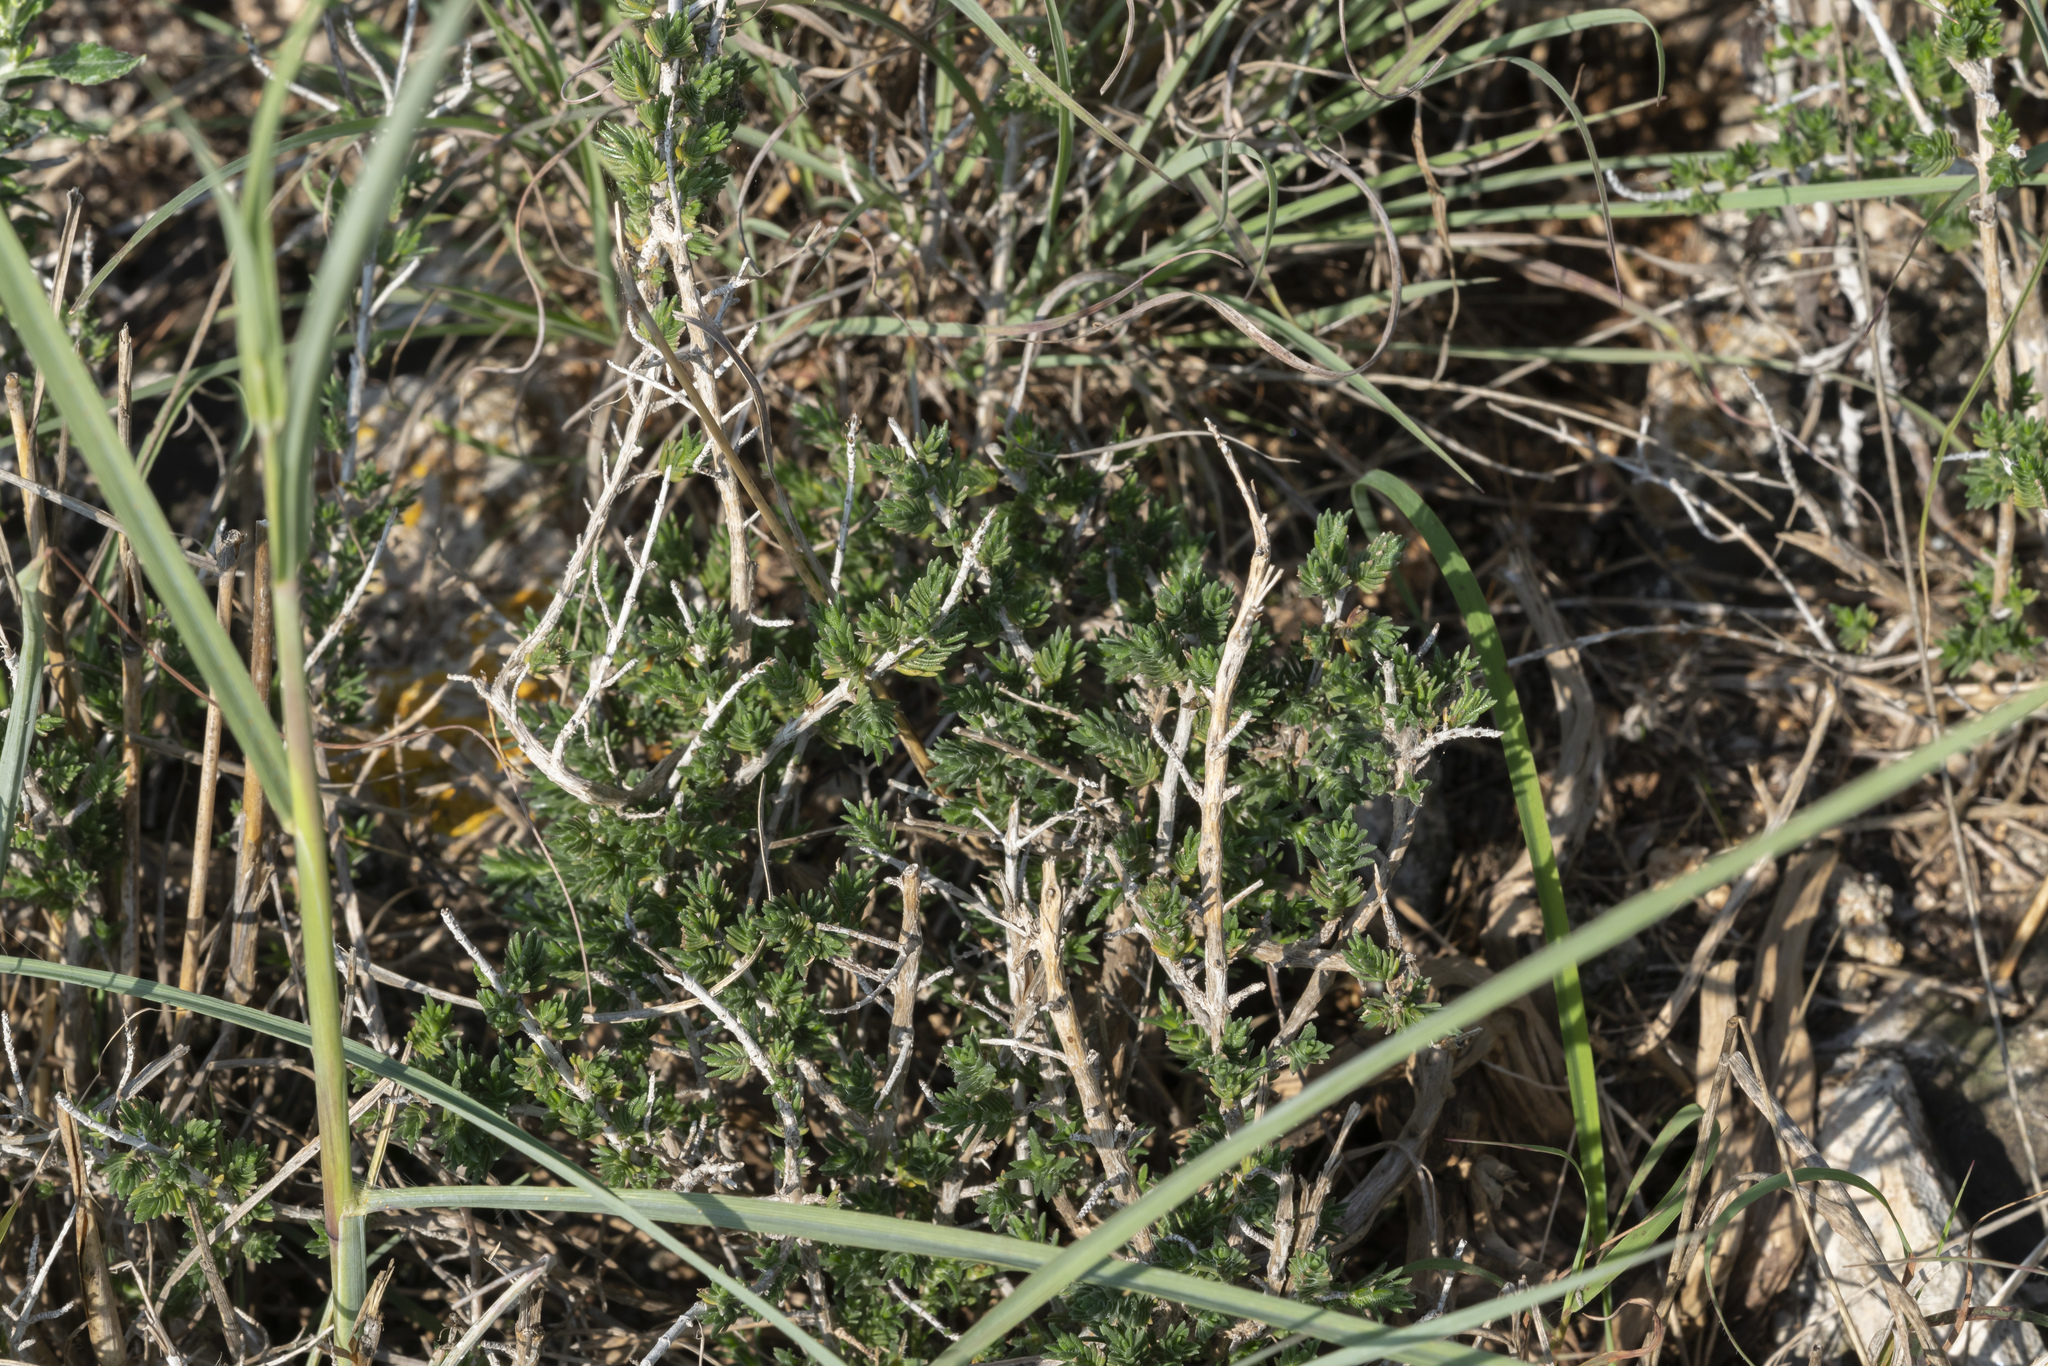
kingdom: Plantae
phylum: Tracheophyta
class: Magnoliopsida
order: Lamiales
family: Lamiaceae
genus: Thymbra
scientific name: Thymbra capitata
